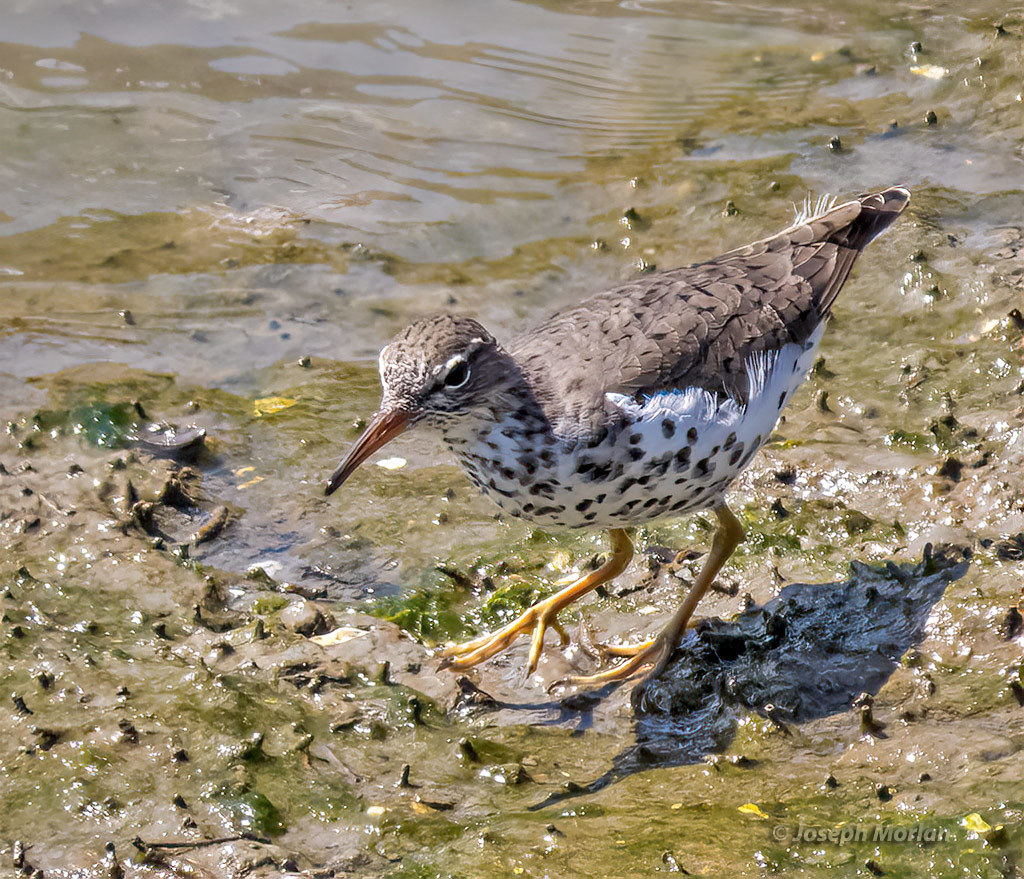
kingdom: Animalia
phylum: Chordata
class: Aves
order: Charadriiformes
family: Scolopacidae
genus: Actitis
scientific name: Actitis macularius
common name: Spotted sandpiper
